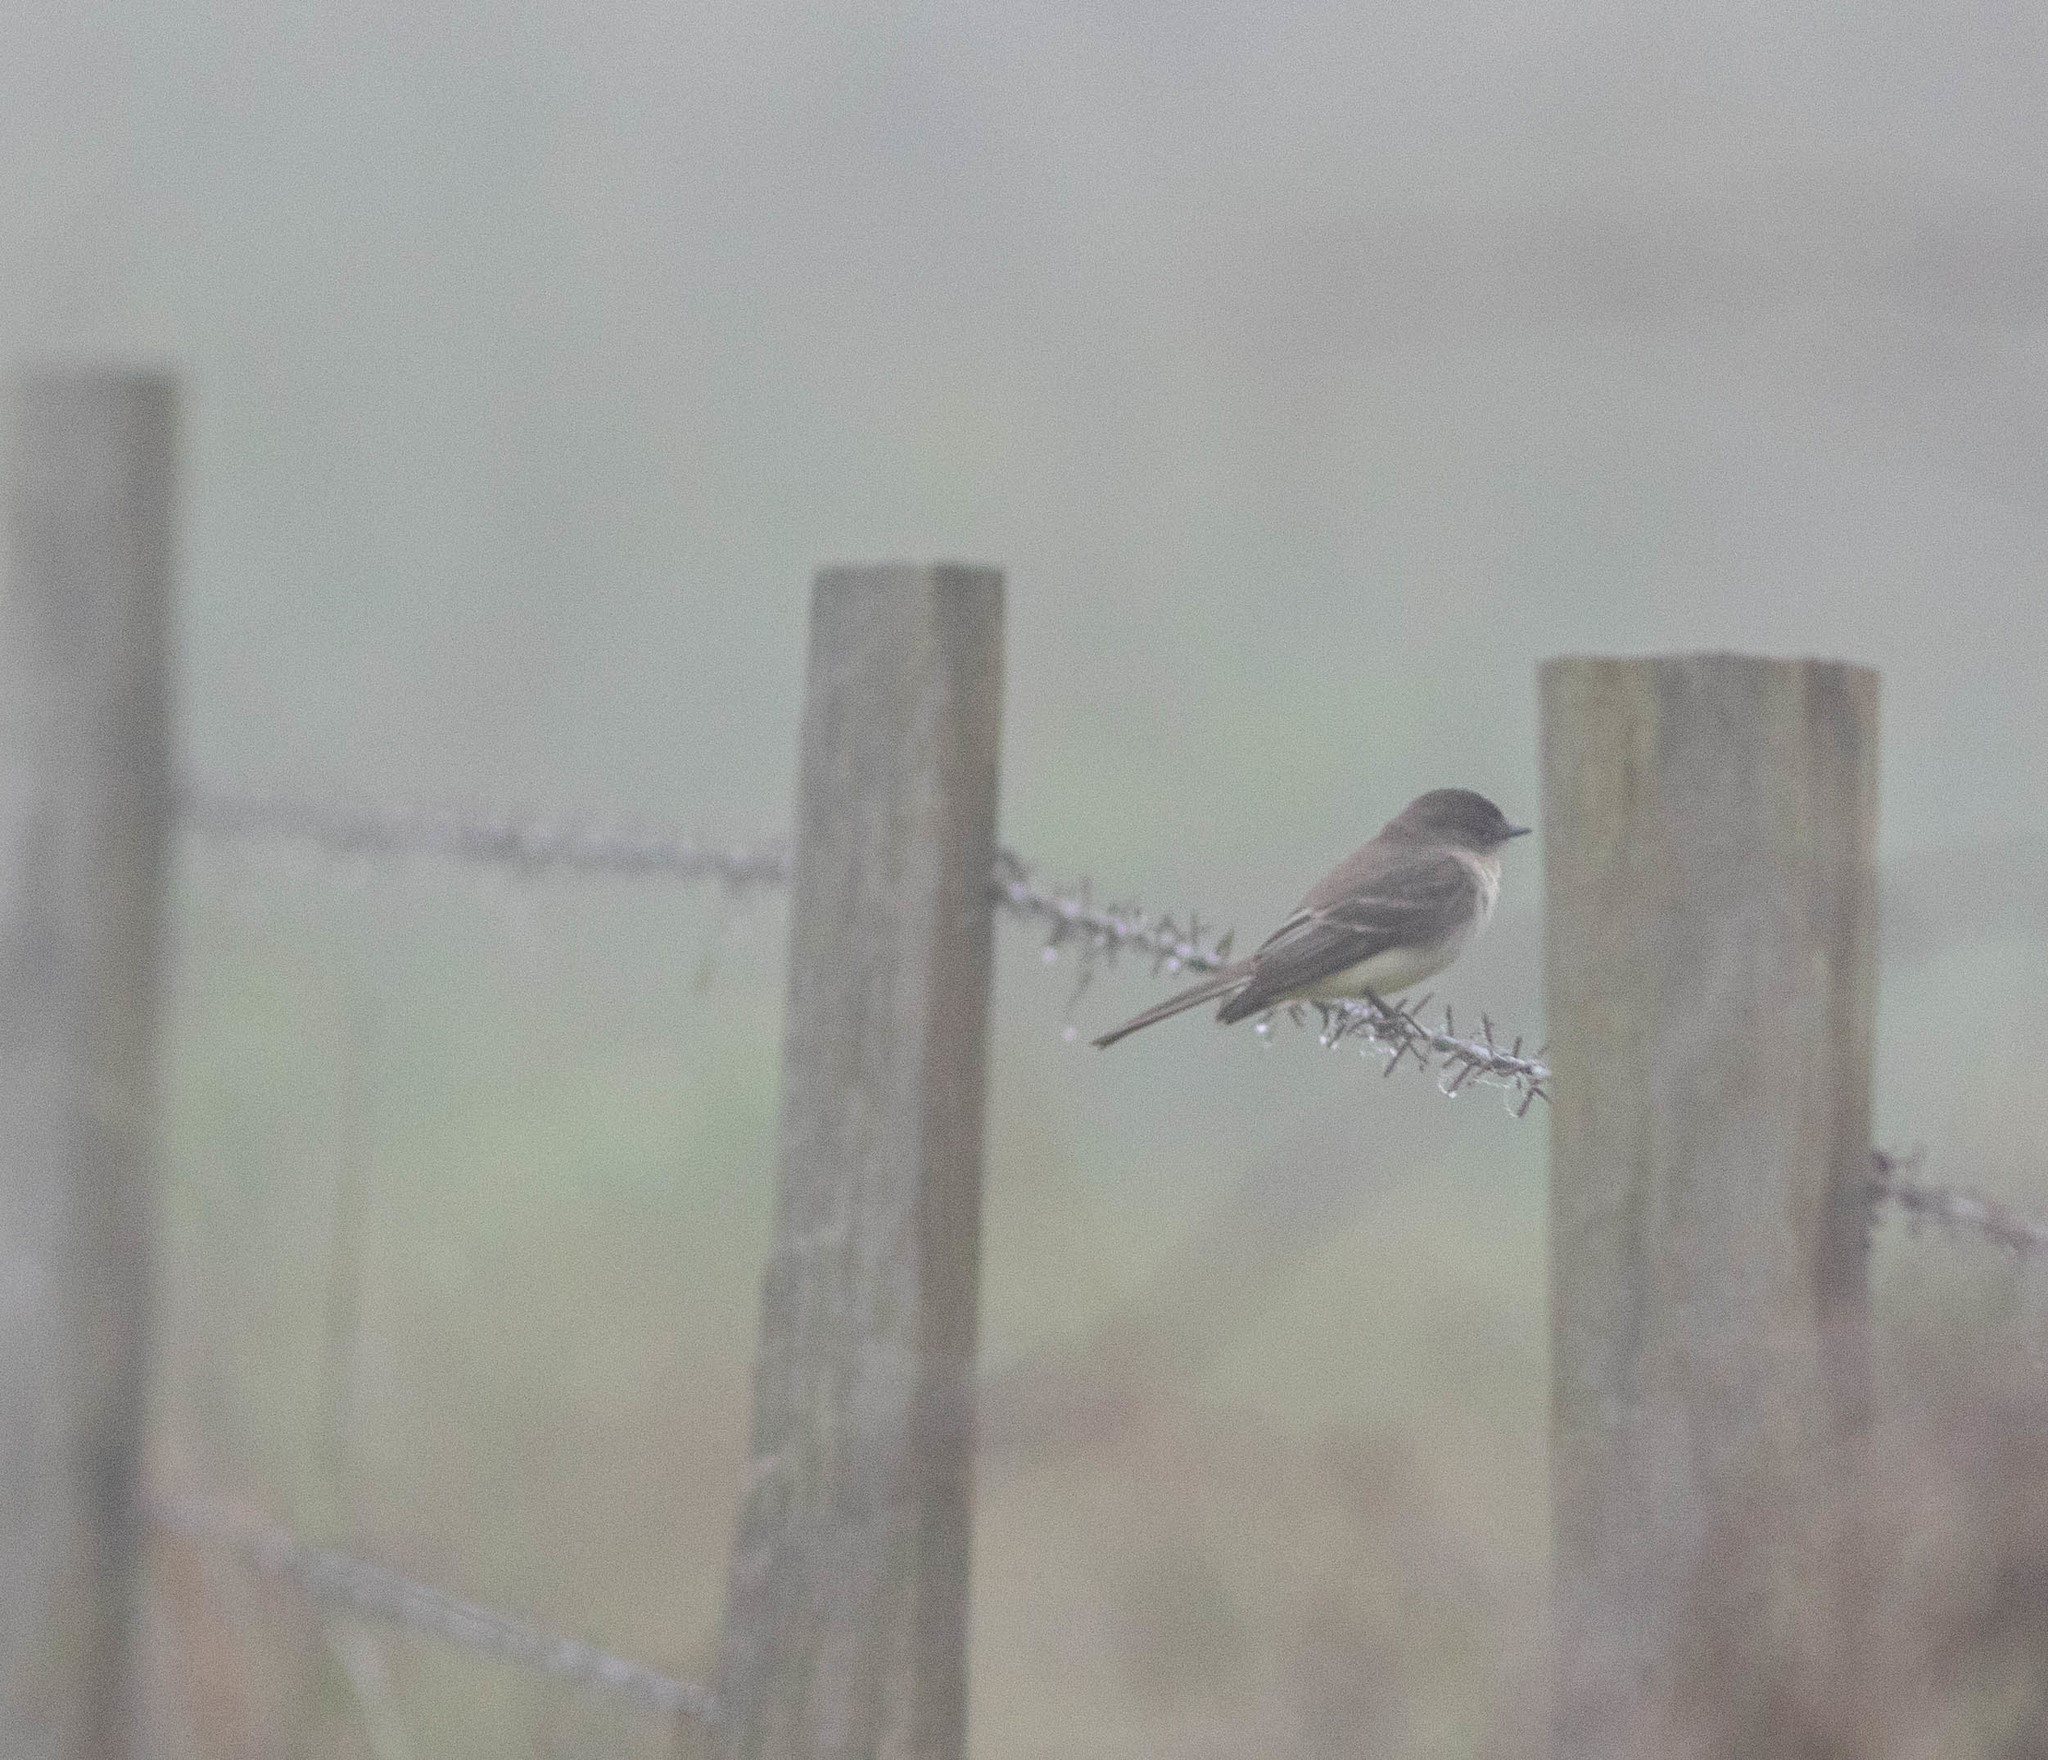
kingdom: Animalia
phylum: Chordata
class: Aves
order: Passeriformes
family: Tyrannidae
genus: Sayornis
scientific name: Sayornis phoebe
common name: Eastern phoebe
